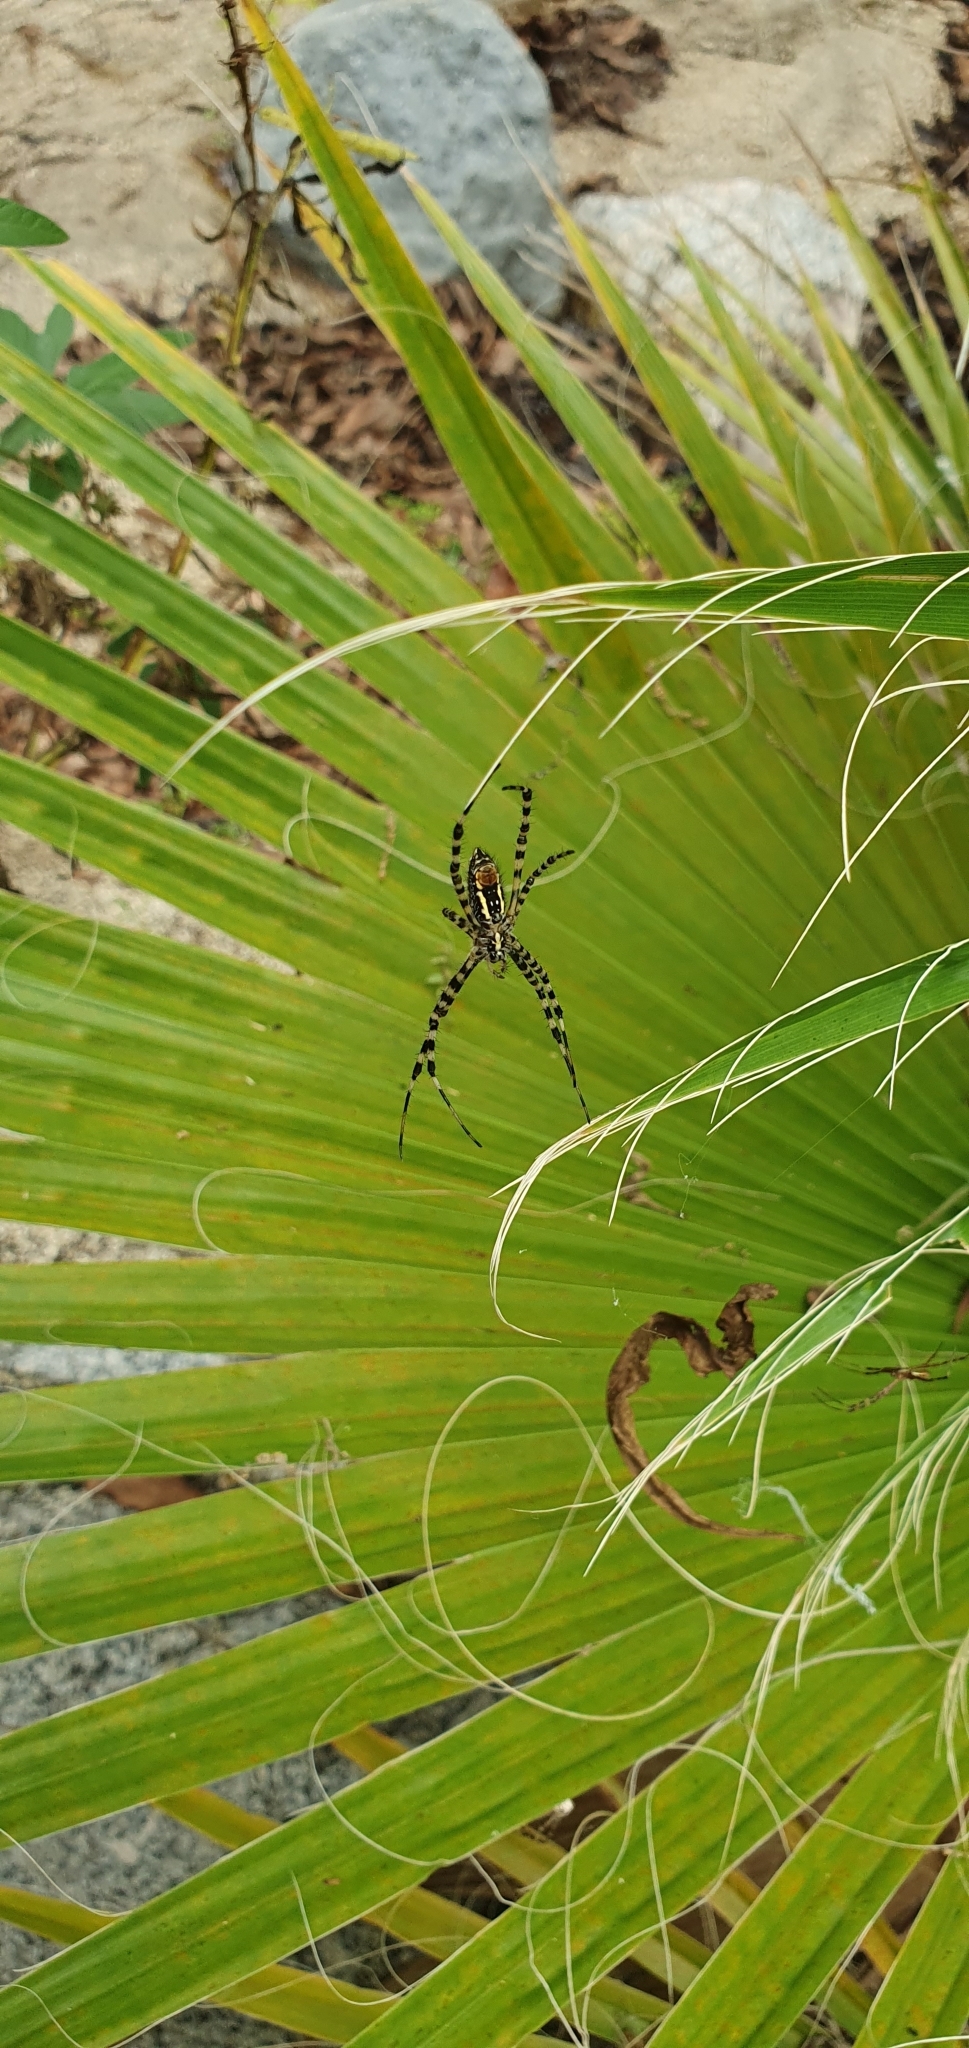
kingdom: Animalia
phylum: Arthropoda
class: Arachnida
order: Araneae
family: Araneidae
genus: Argiope
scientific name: Argiope trifasciata
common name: Banded garden spider
